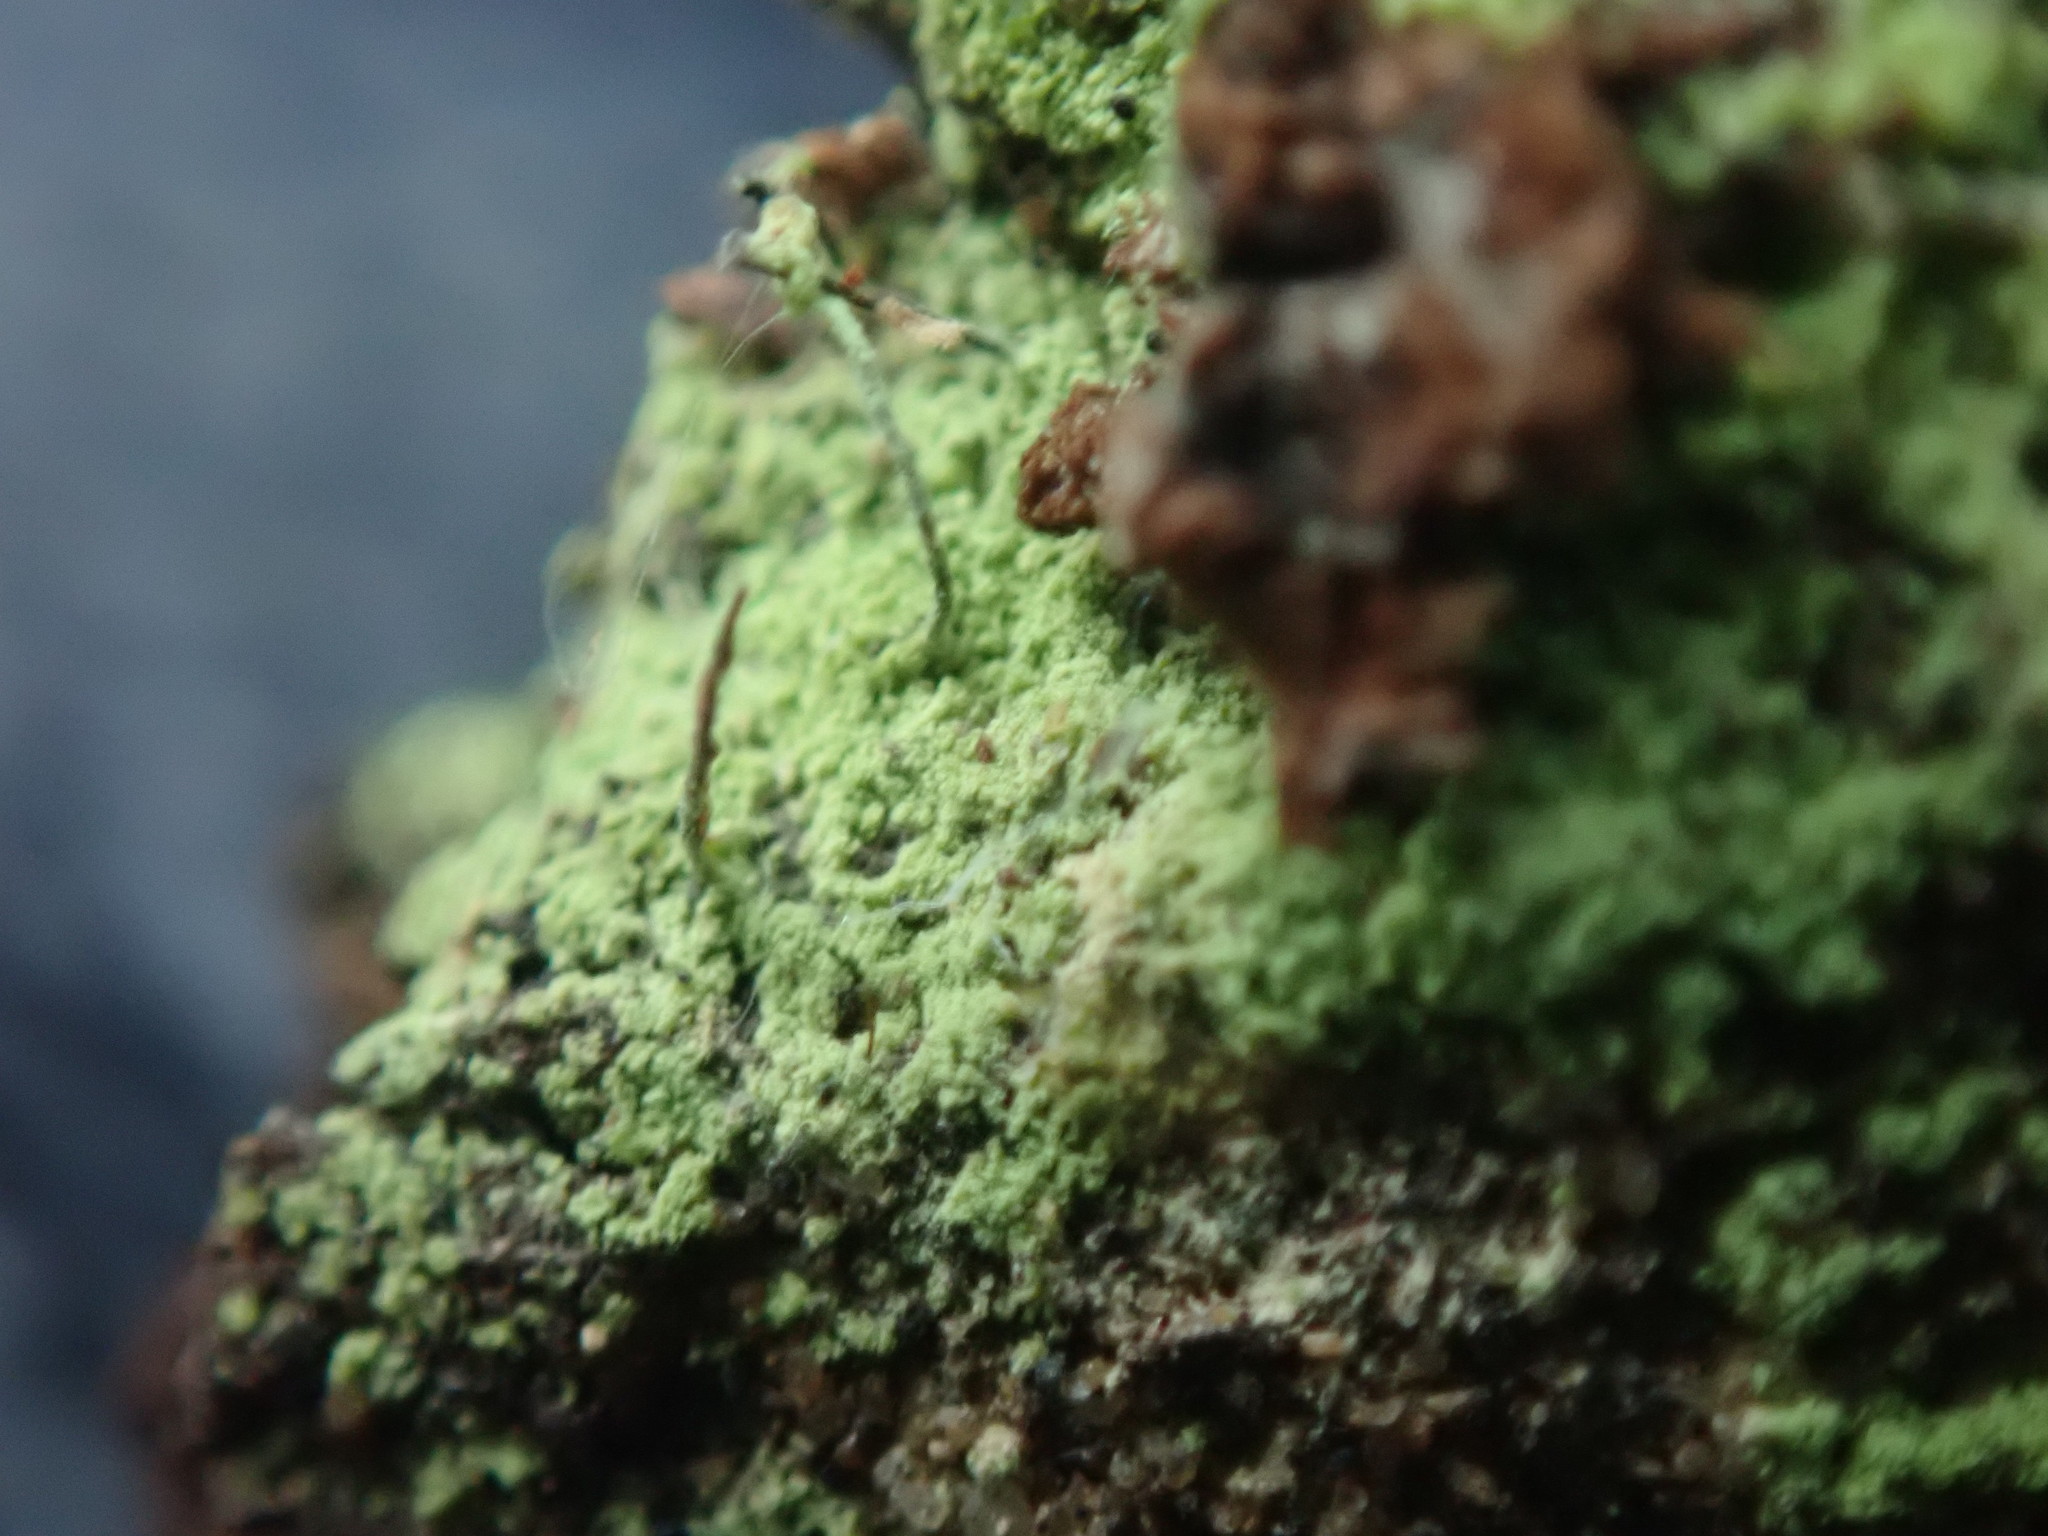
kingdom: Fungi
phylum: Ascomycota
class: Coniocybomycetes
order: Coniocybales
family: Coniocybaceae
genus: Chaenotheca
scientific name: Chaenotheca furfuracea
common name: Sulphur stubble lichen
